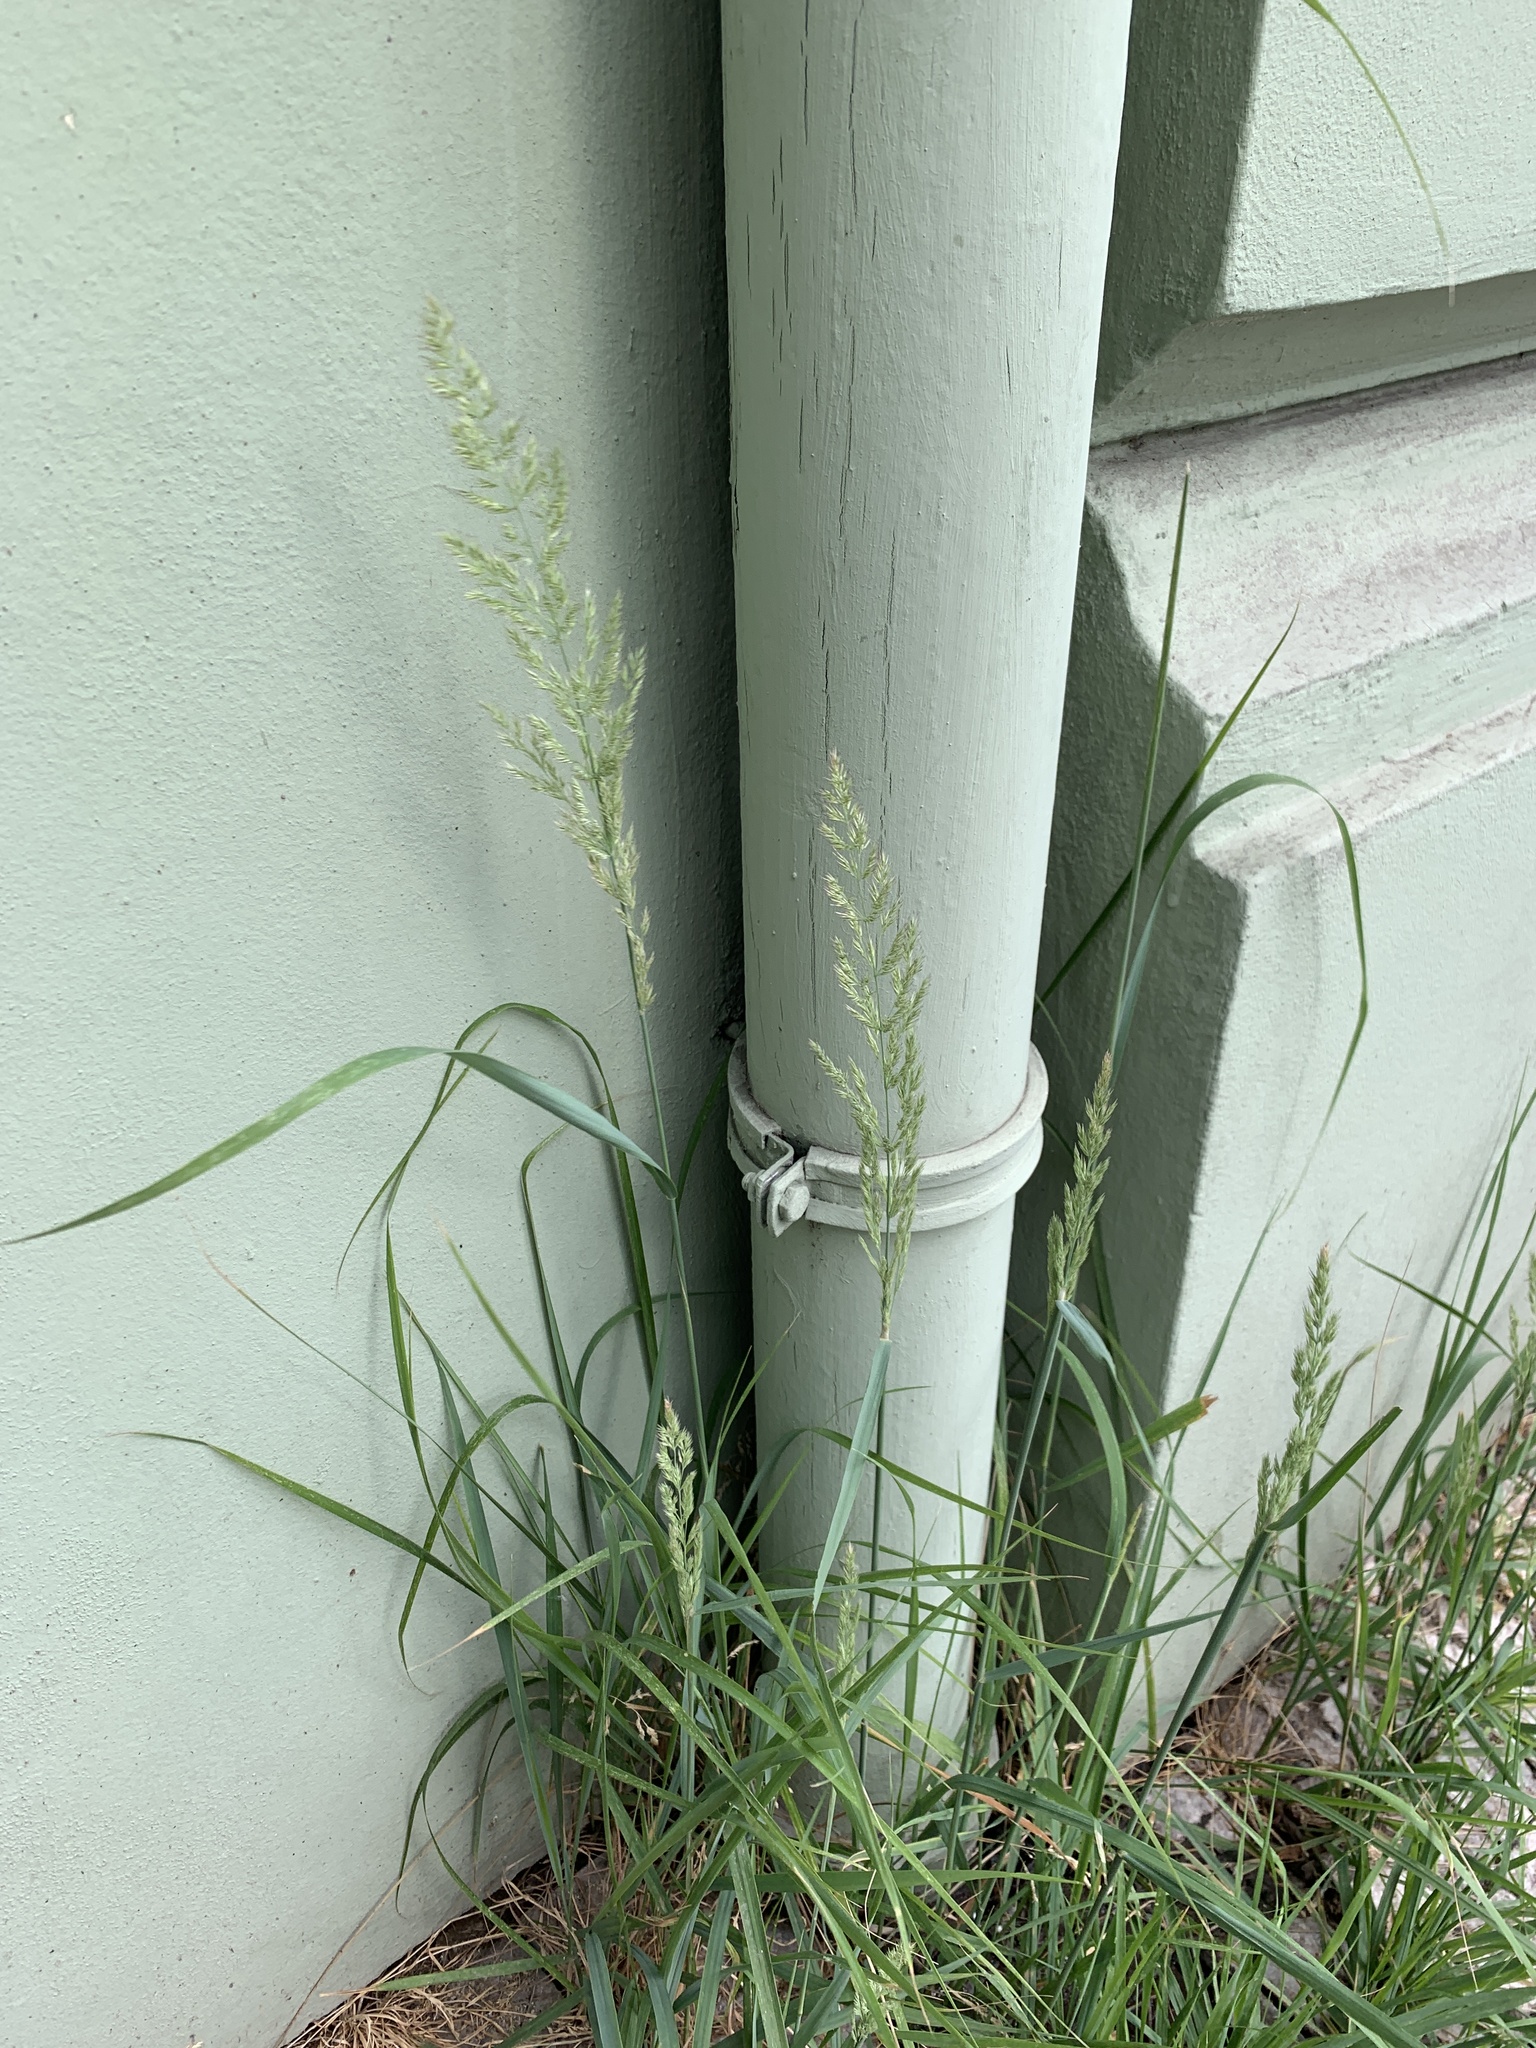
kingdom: Plantae
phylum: Tracheophyta
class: Liliopsida
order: Poales
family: Poaceae
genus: Calamagrostis
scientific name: Calamagrostis epigejos
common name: Wood small-reed
